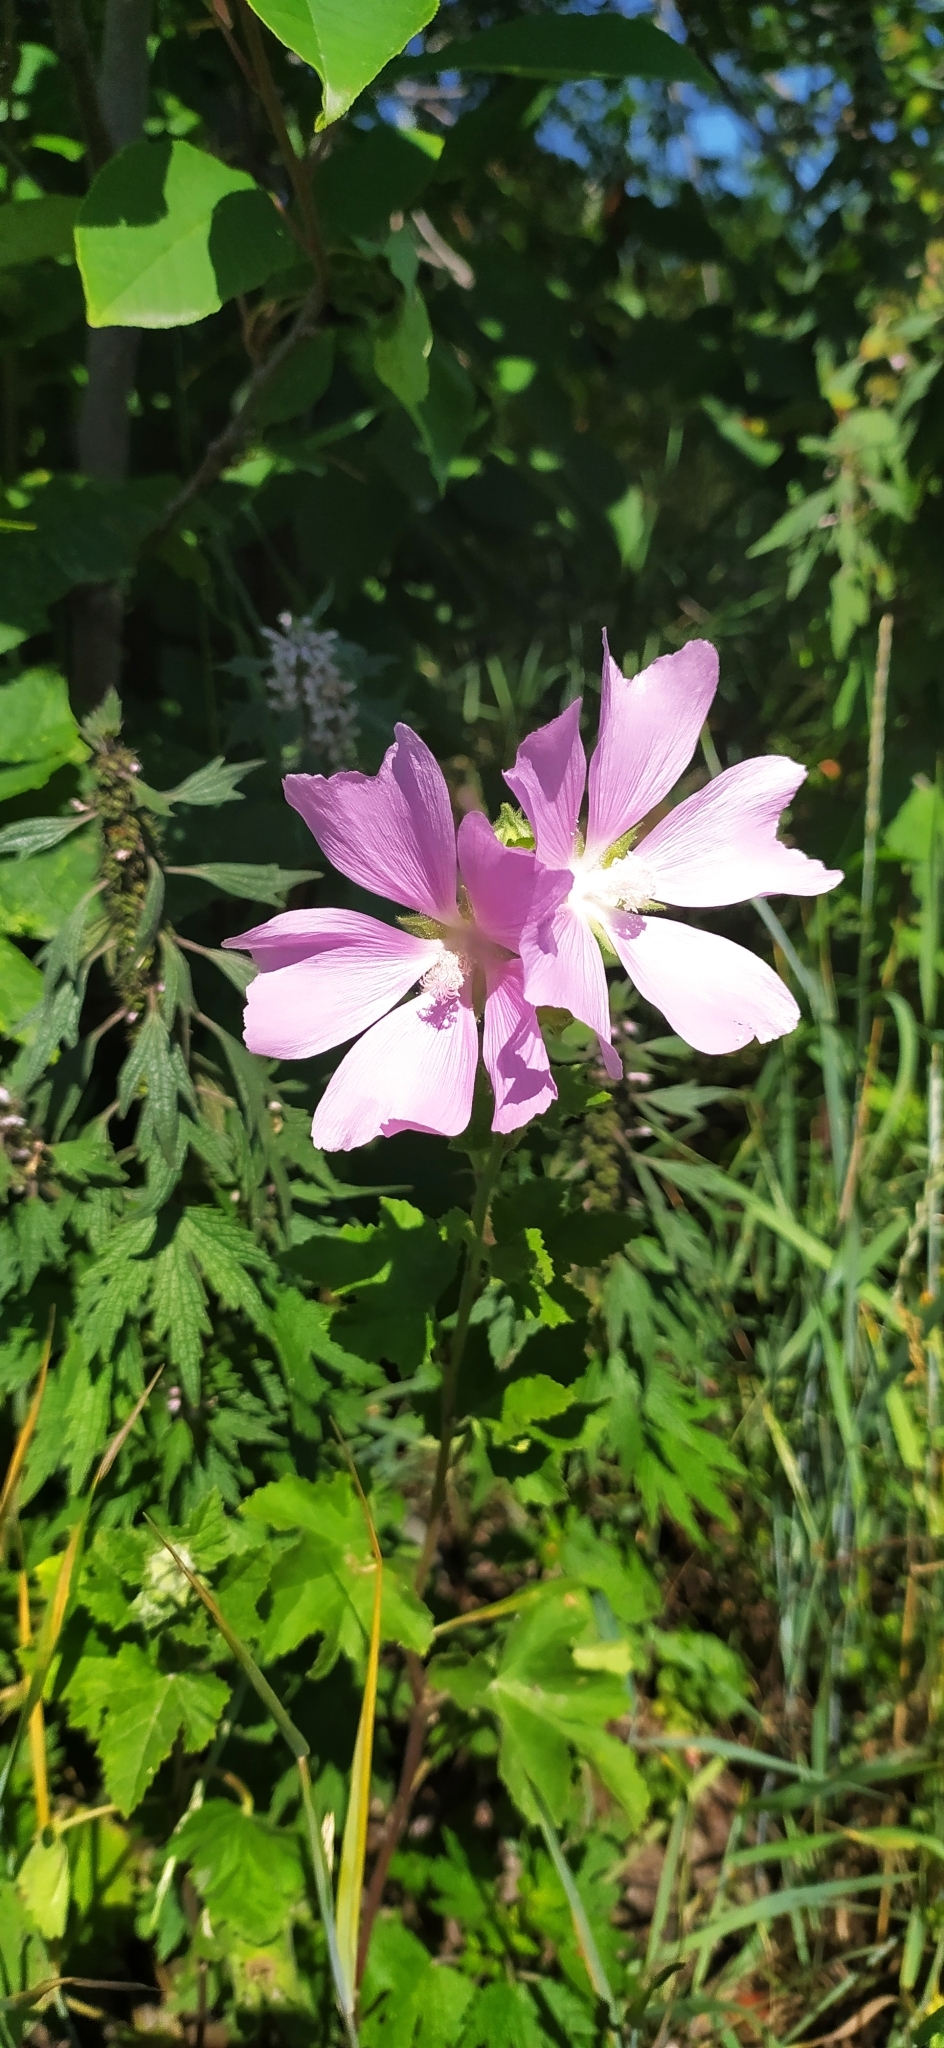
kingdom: Plantae
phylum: Tracheophyta
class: Magnoliopsida
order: Malvales
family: Malvaceae
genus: Malva
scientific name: Malva thuringiaca
